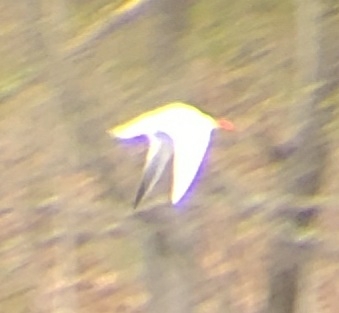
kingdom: Animalia
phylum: Chordata
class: Aves
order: Charadriiformes
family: Laridae
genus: Hydroprogne
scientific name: Hydroprogne caspia
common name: Caspian tern
